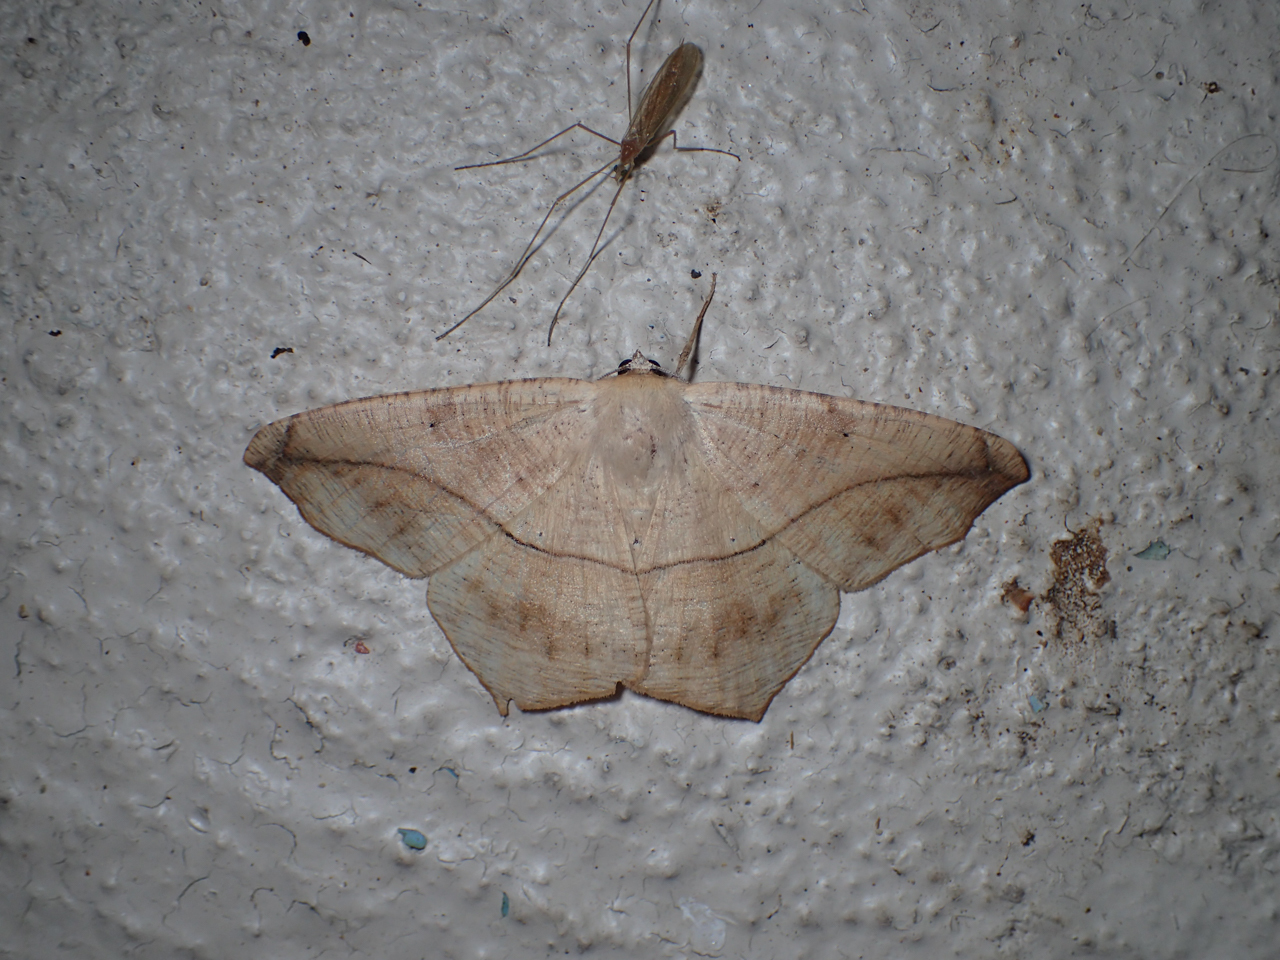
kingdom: Animalia
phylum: Arthropoda
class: Insecta
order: Lepidoptera
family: Geometridae
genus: Prochoerodes
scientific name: Prochoerodes lineola
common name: Large maple spanworm
